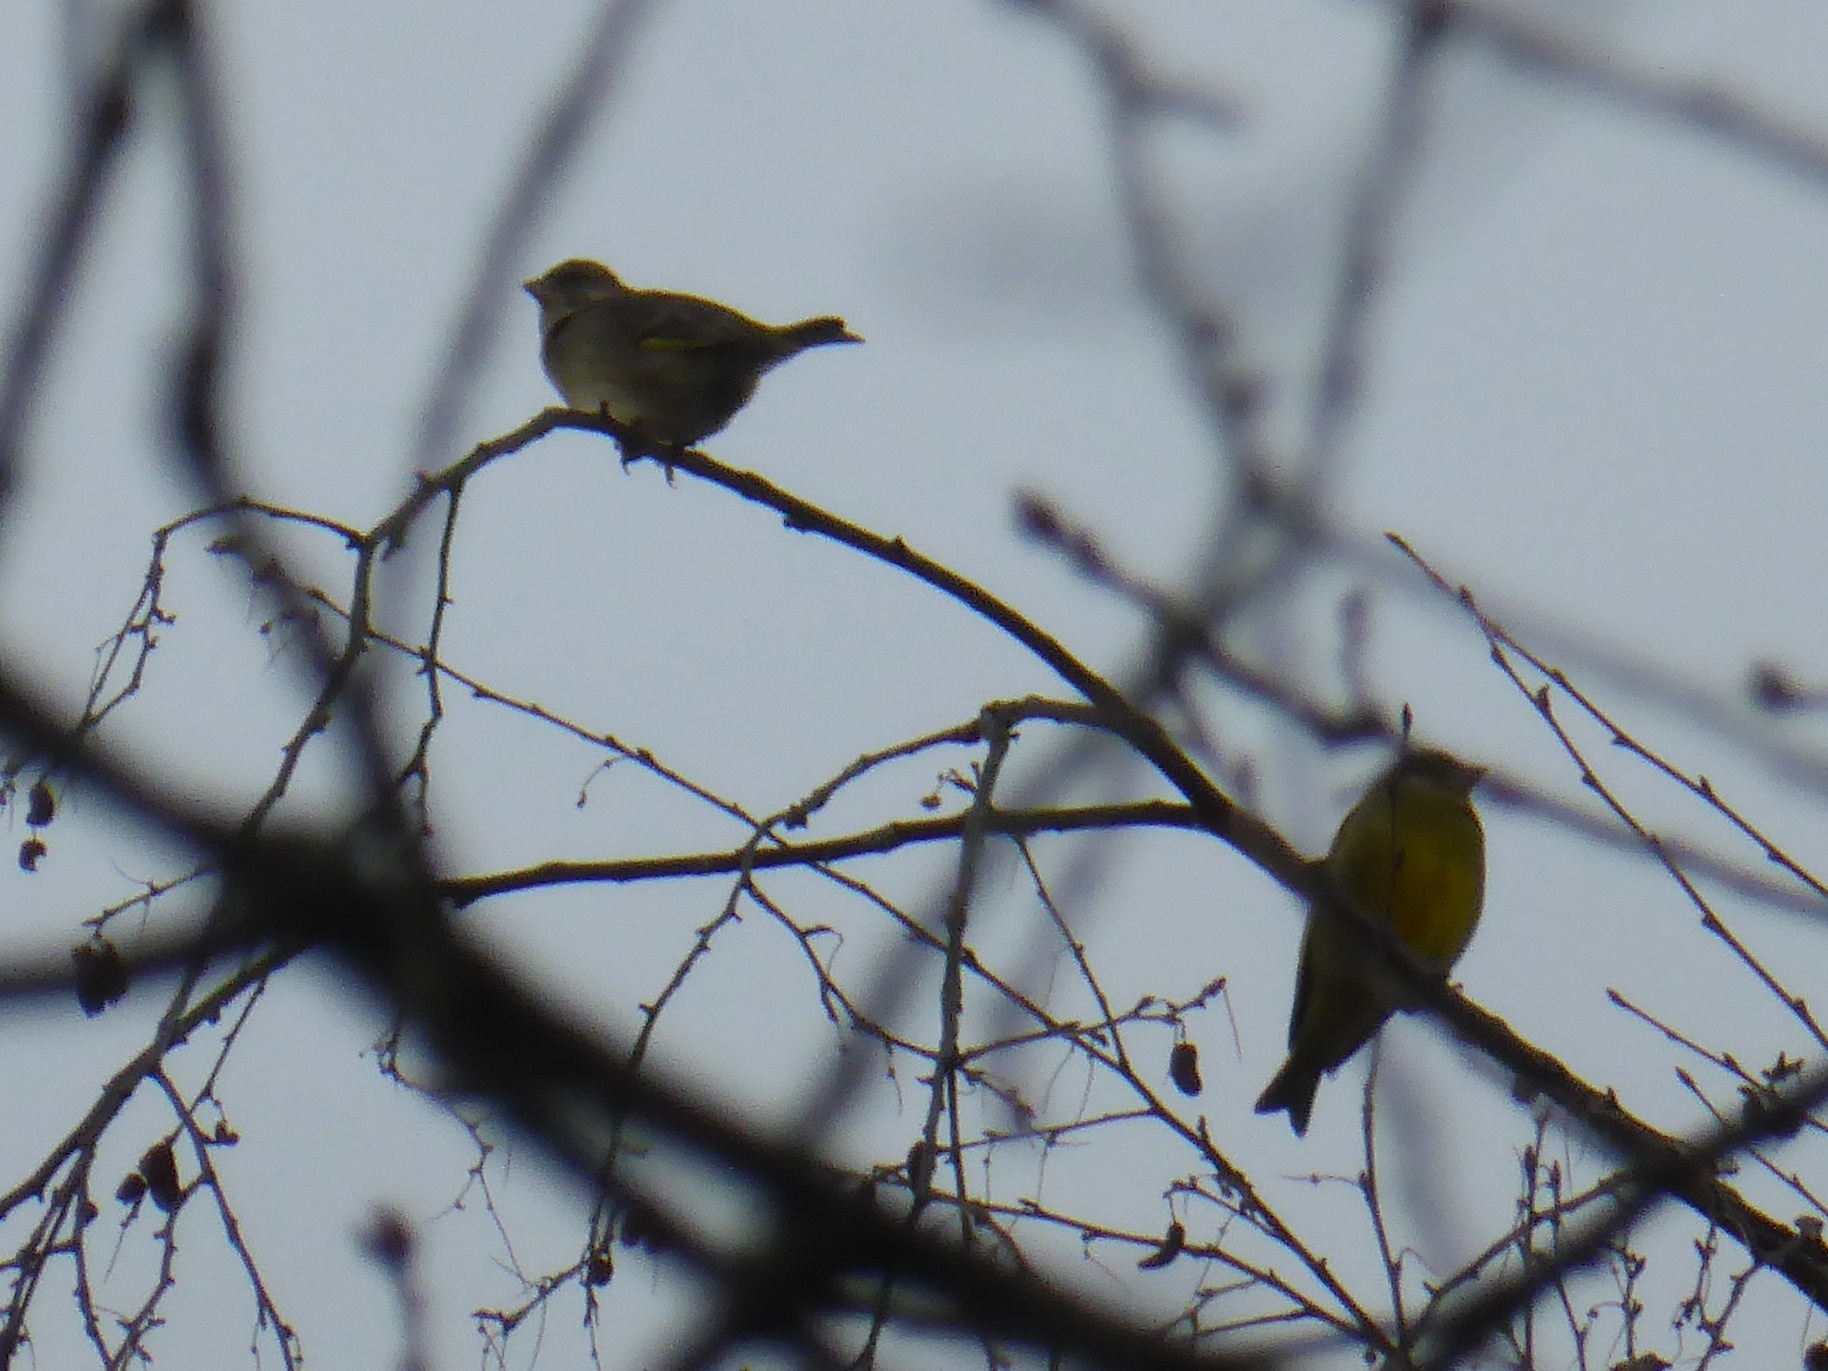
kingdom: Plantae
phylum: Tracheophyta
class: Liliopsida
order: Poales
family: Poaceae
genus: Chloris
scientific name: Chloris chloris
